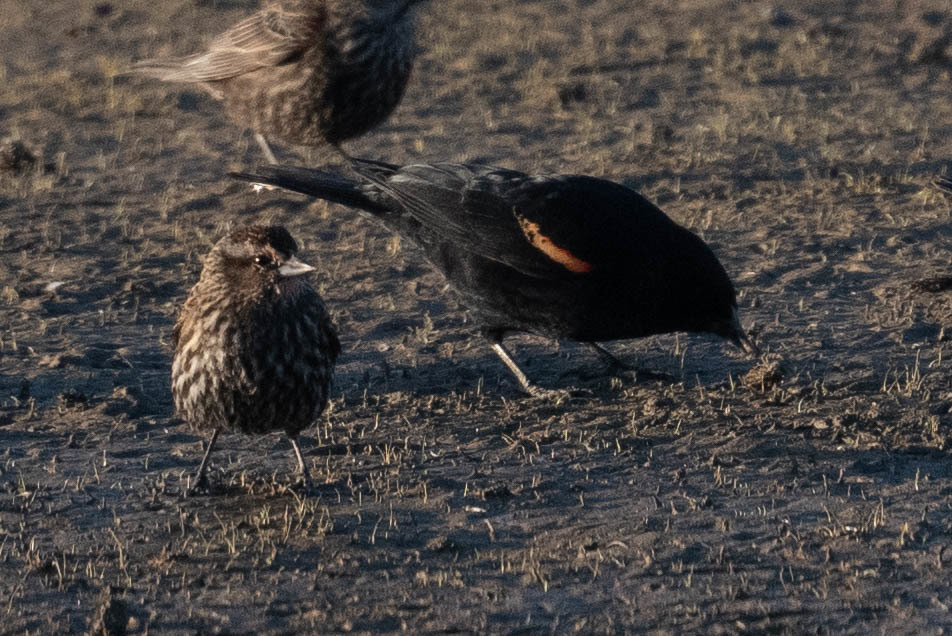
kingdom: Animalia
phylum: Chordata
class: Aves
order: Passeriformes
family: Icteridae
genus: Agelaius
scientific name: Agelaius phoeniceus
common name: Red-winged blackbird
